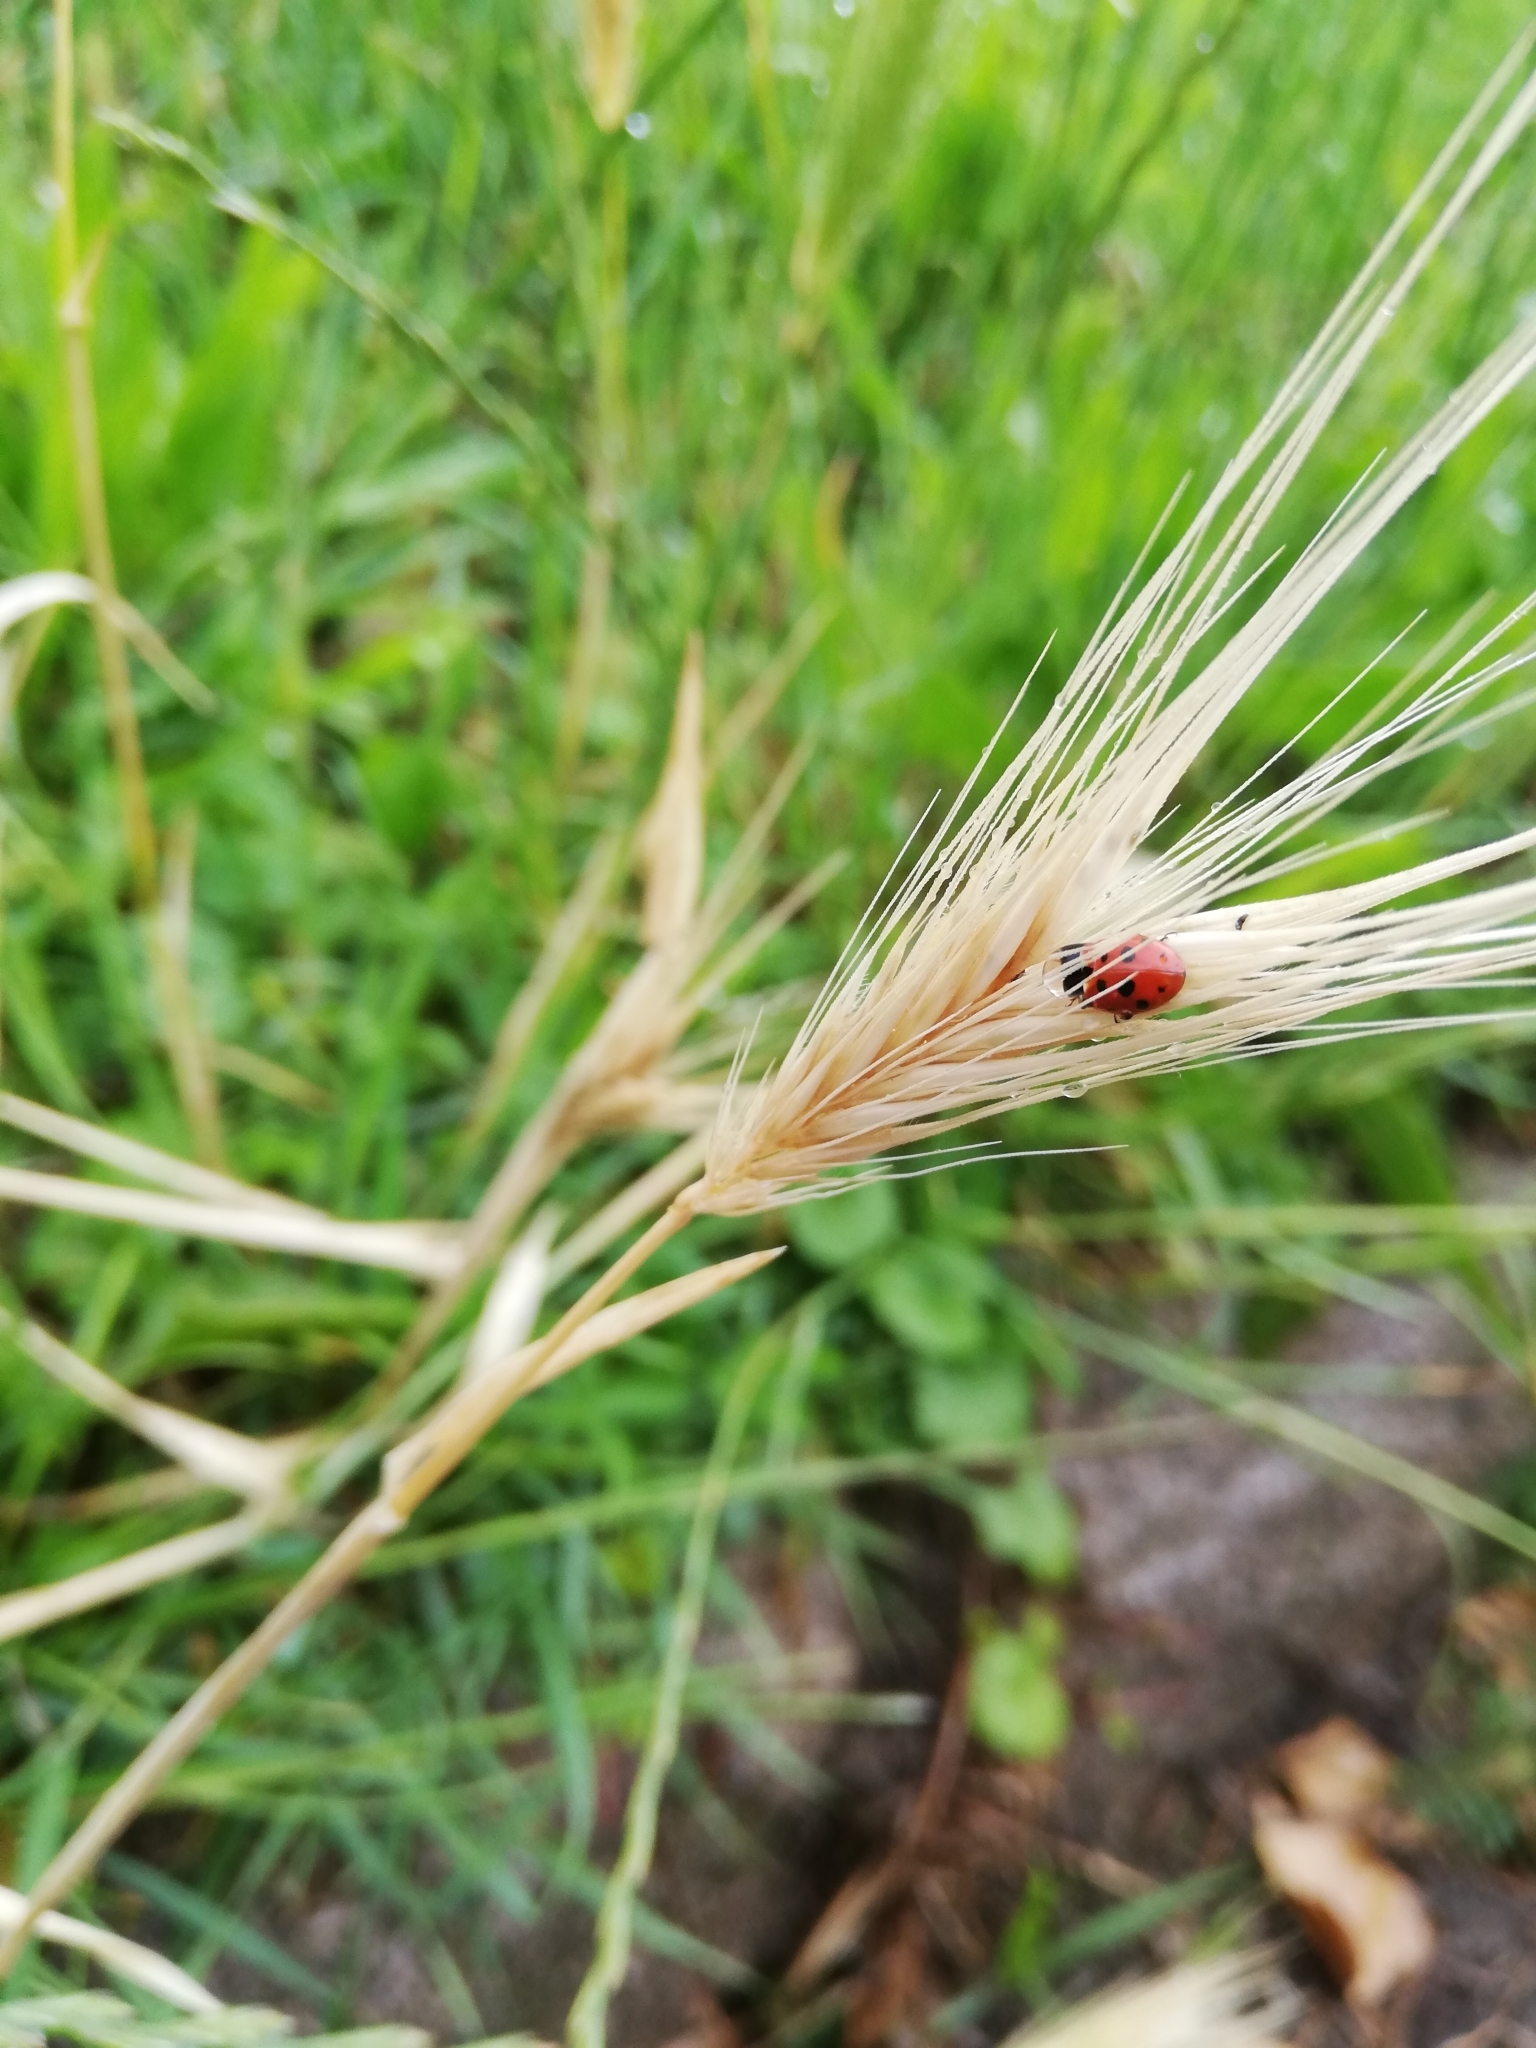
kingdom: Animalia
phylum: Arthropoda
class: Insecta
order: Coleoptera
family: Coccinellidae
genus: Hippodamia
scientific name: Hippodamia variegata
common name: Ladybird beetle
